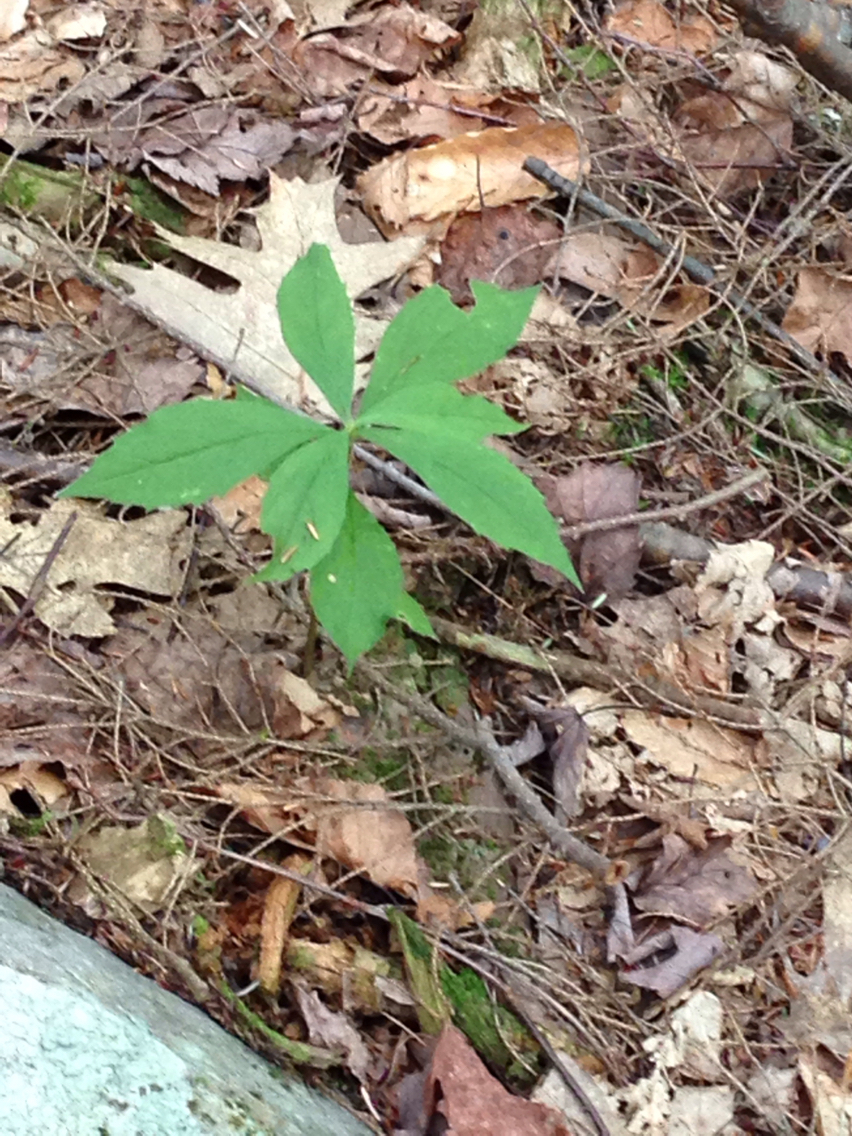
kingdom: Plantae
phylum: Tracheophyta
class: Magnoliopsida
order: Asterales
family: Asteraceae
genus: Oclemena
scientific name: Oclemena acuminata
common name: Mountain aster
